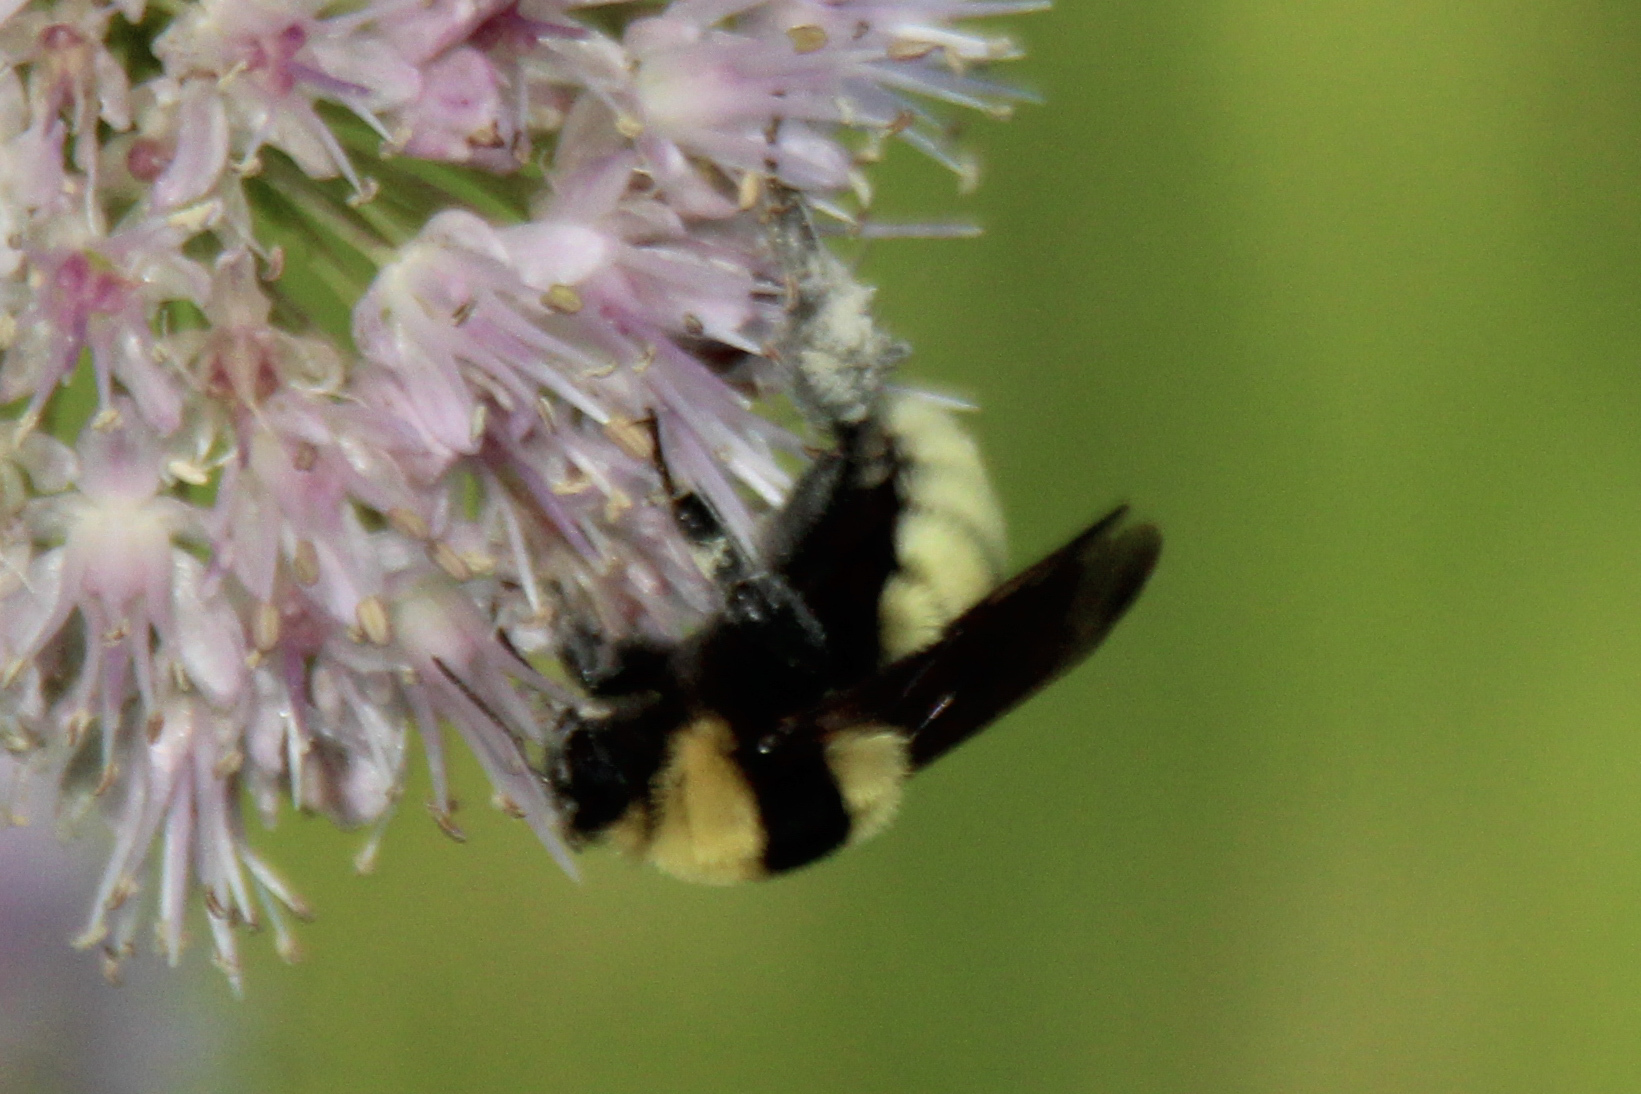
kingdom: Animalia
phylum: Arthropoda
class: Insecta
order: Hymenoptera
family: Apidae
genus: Bombus
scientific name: Bombus fragrans
